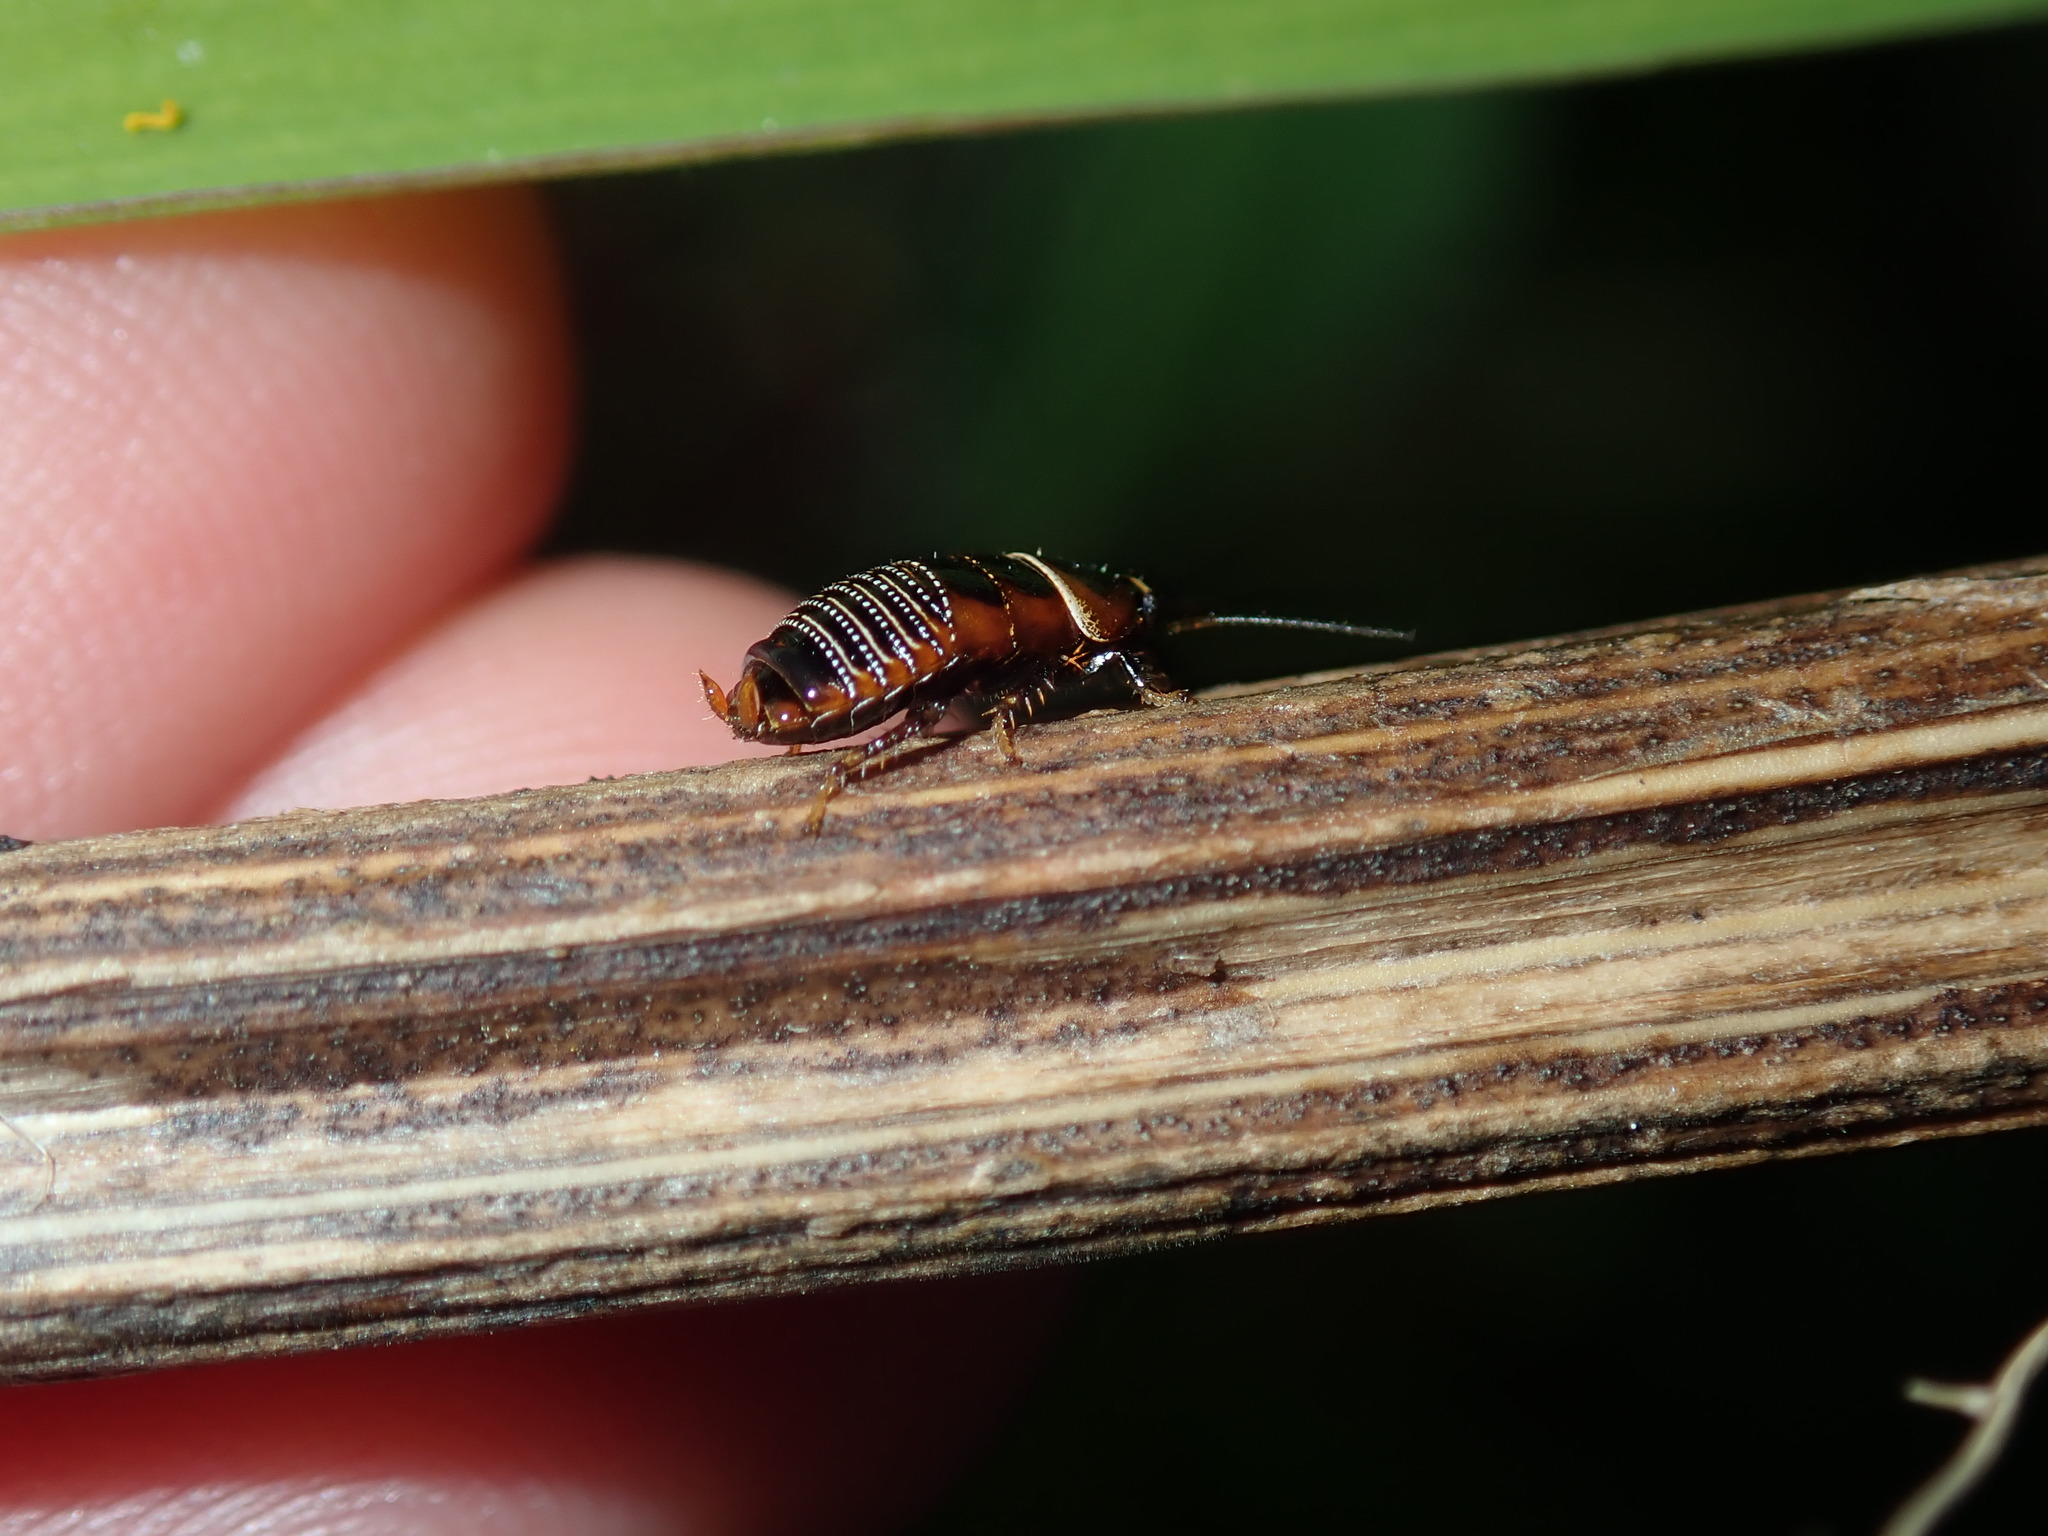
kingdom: Animalia
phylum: Arthropoda
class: Insecta
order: Blattodea
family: Ectobiidae
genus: Ellipsidion
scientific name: Ellipsidion australe
